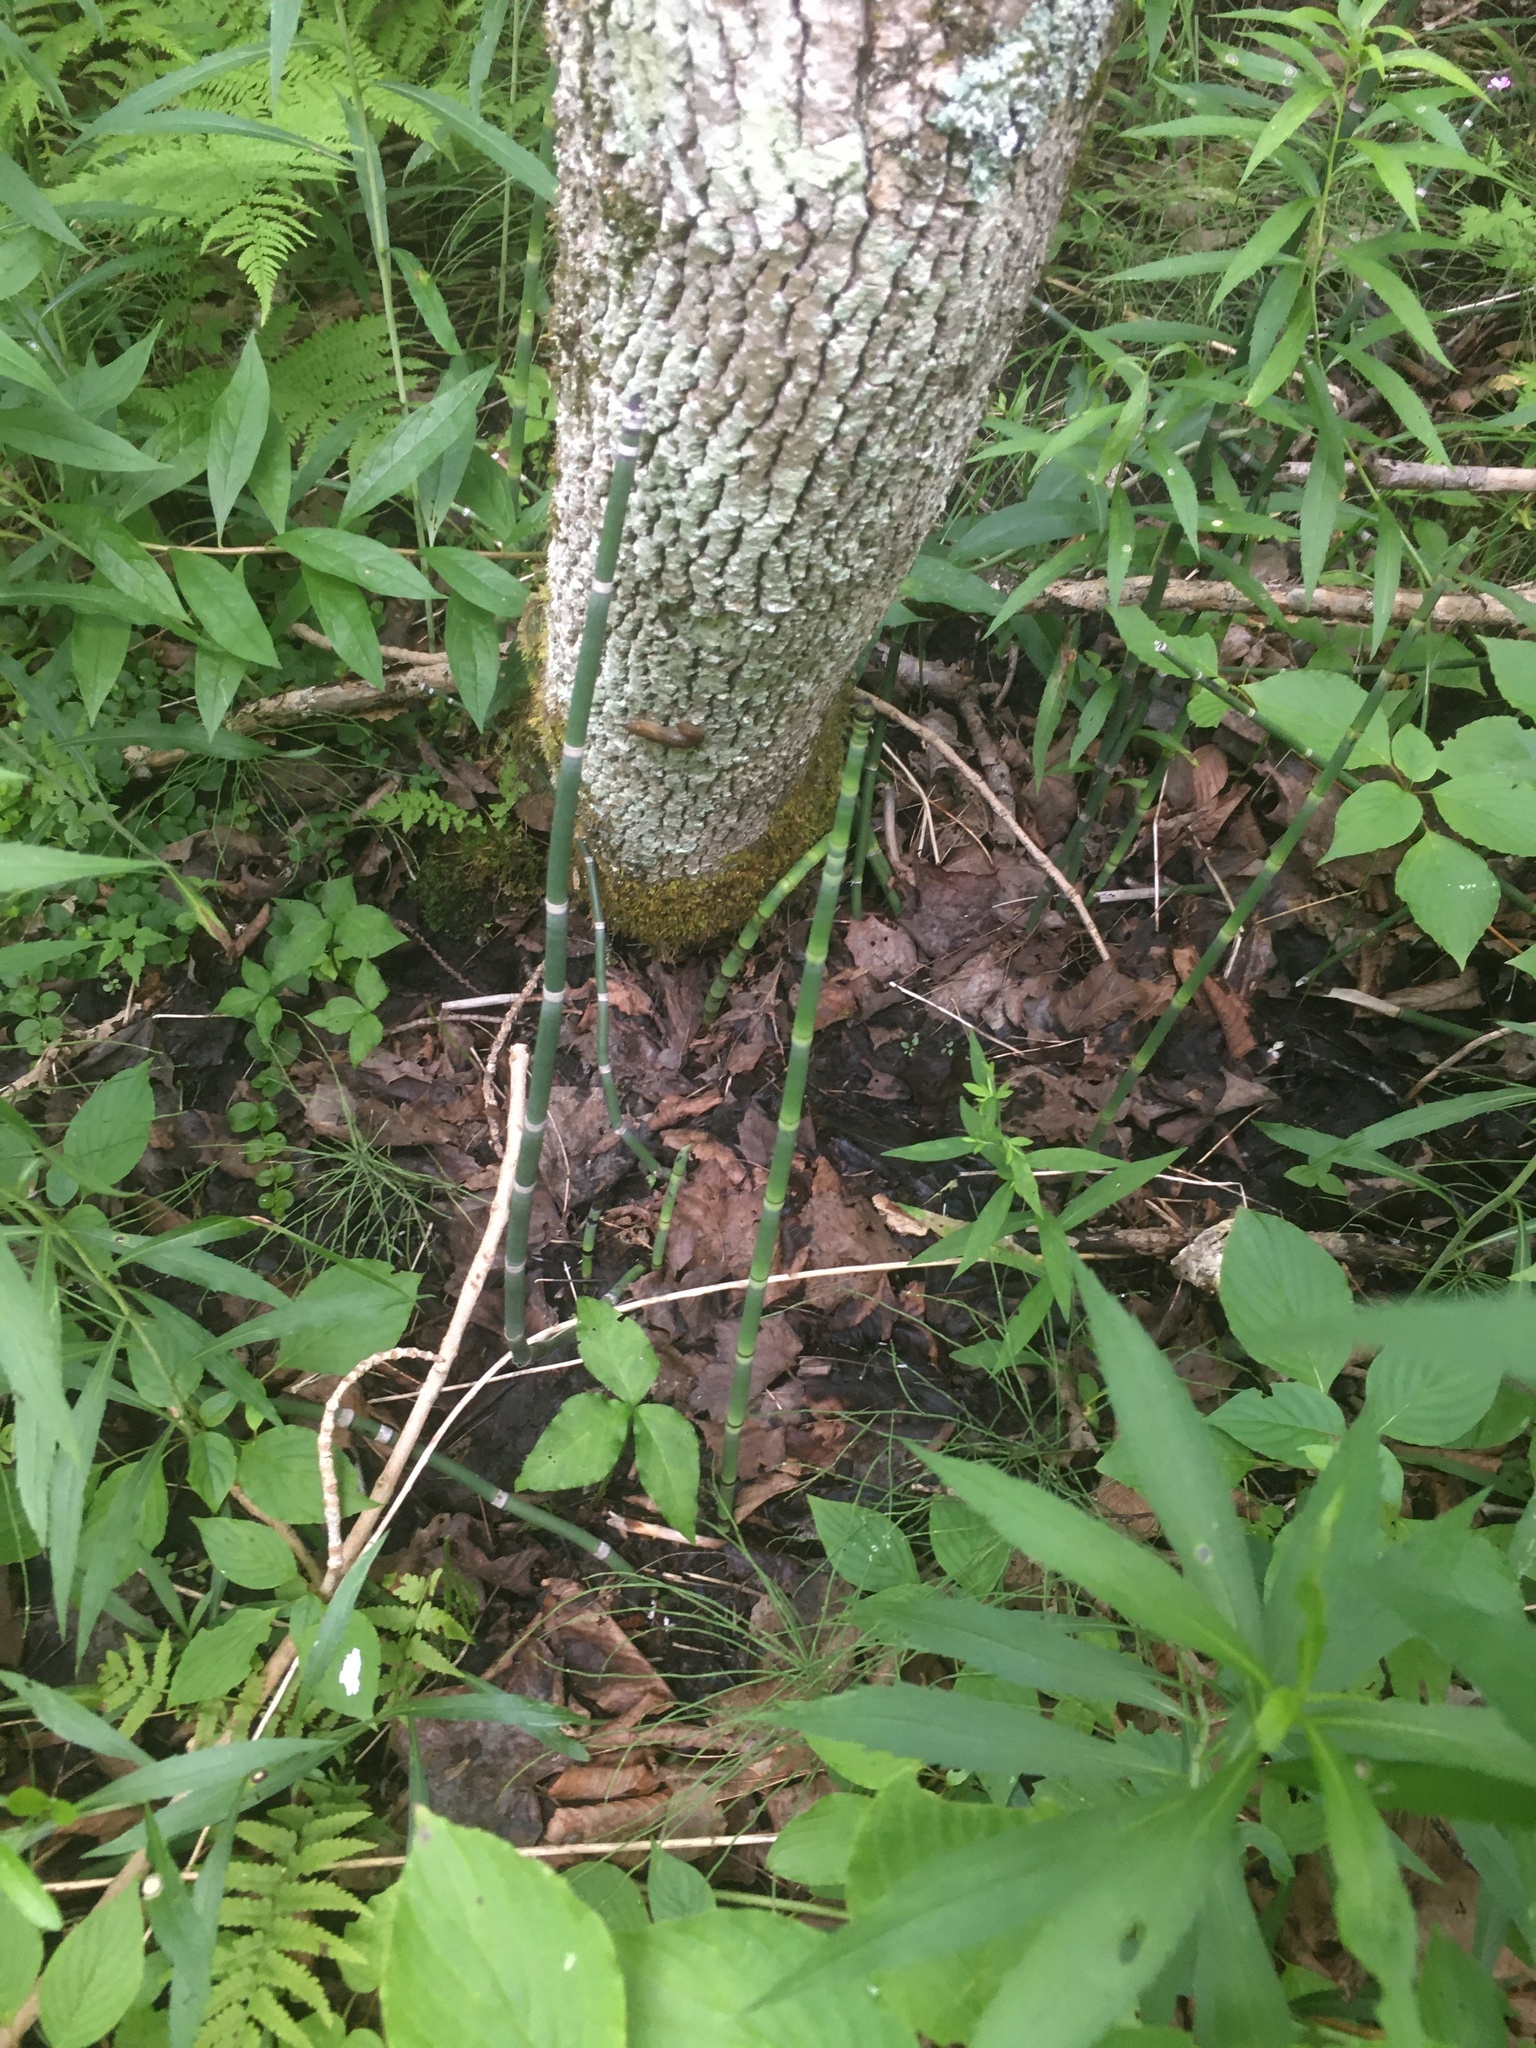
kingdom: Plantae
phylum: Tracheophyta
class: Polypodiopsida
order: Equisetales
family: Equisetaceae
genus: Equisetum
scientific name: Equisetum hyemale
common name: Rough horsetail
